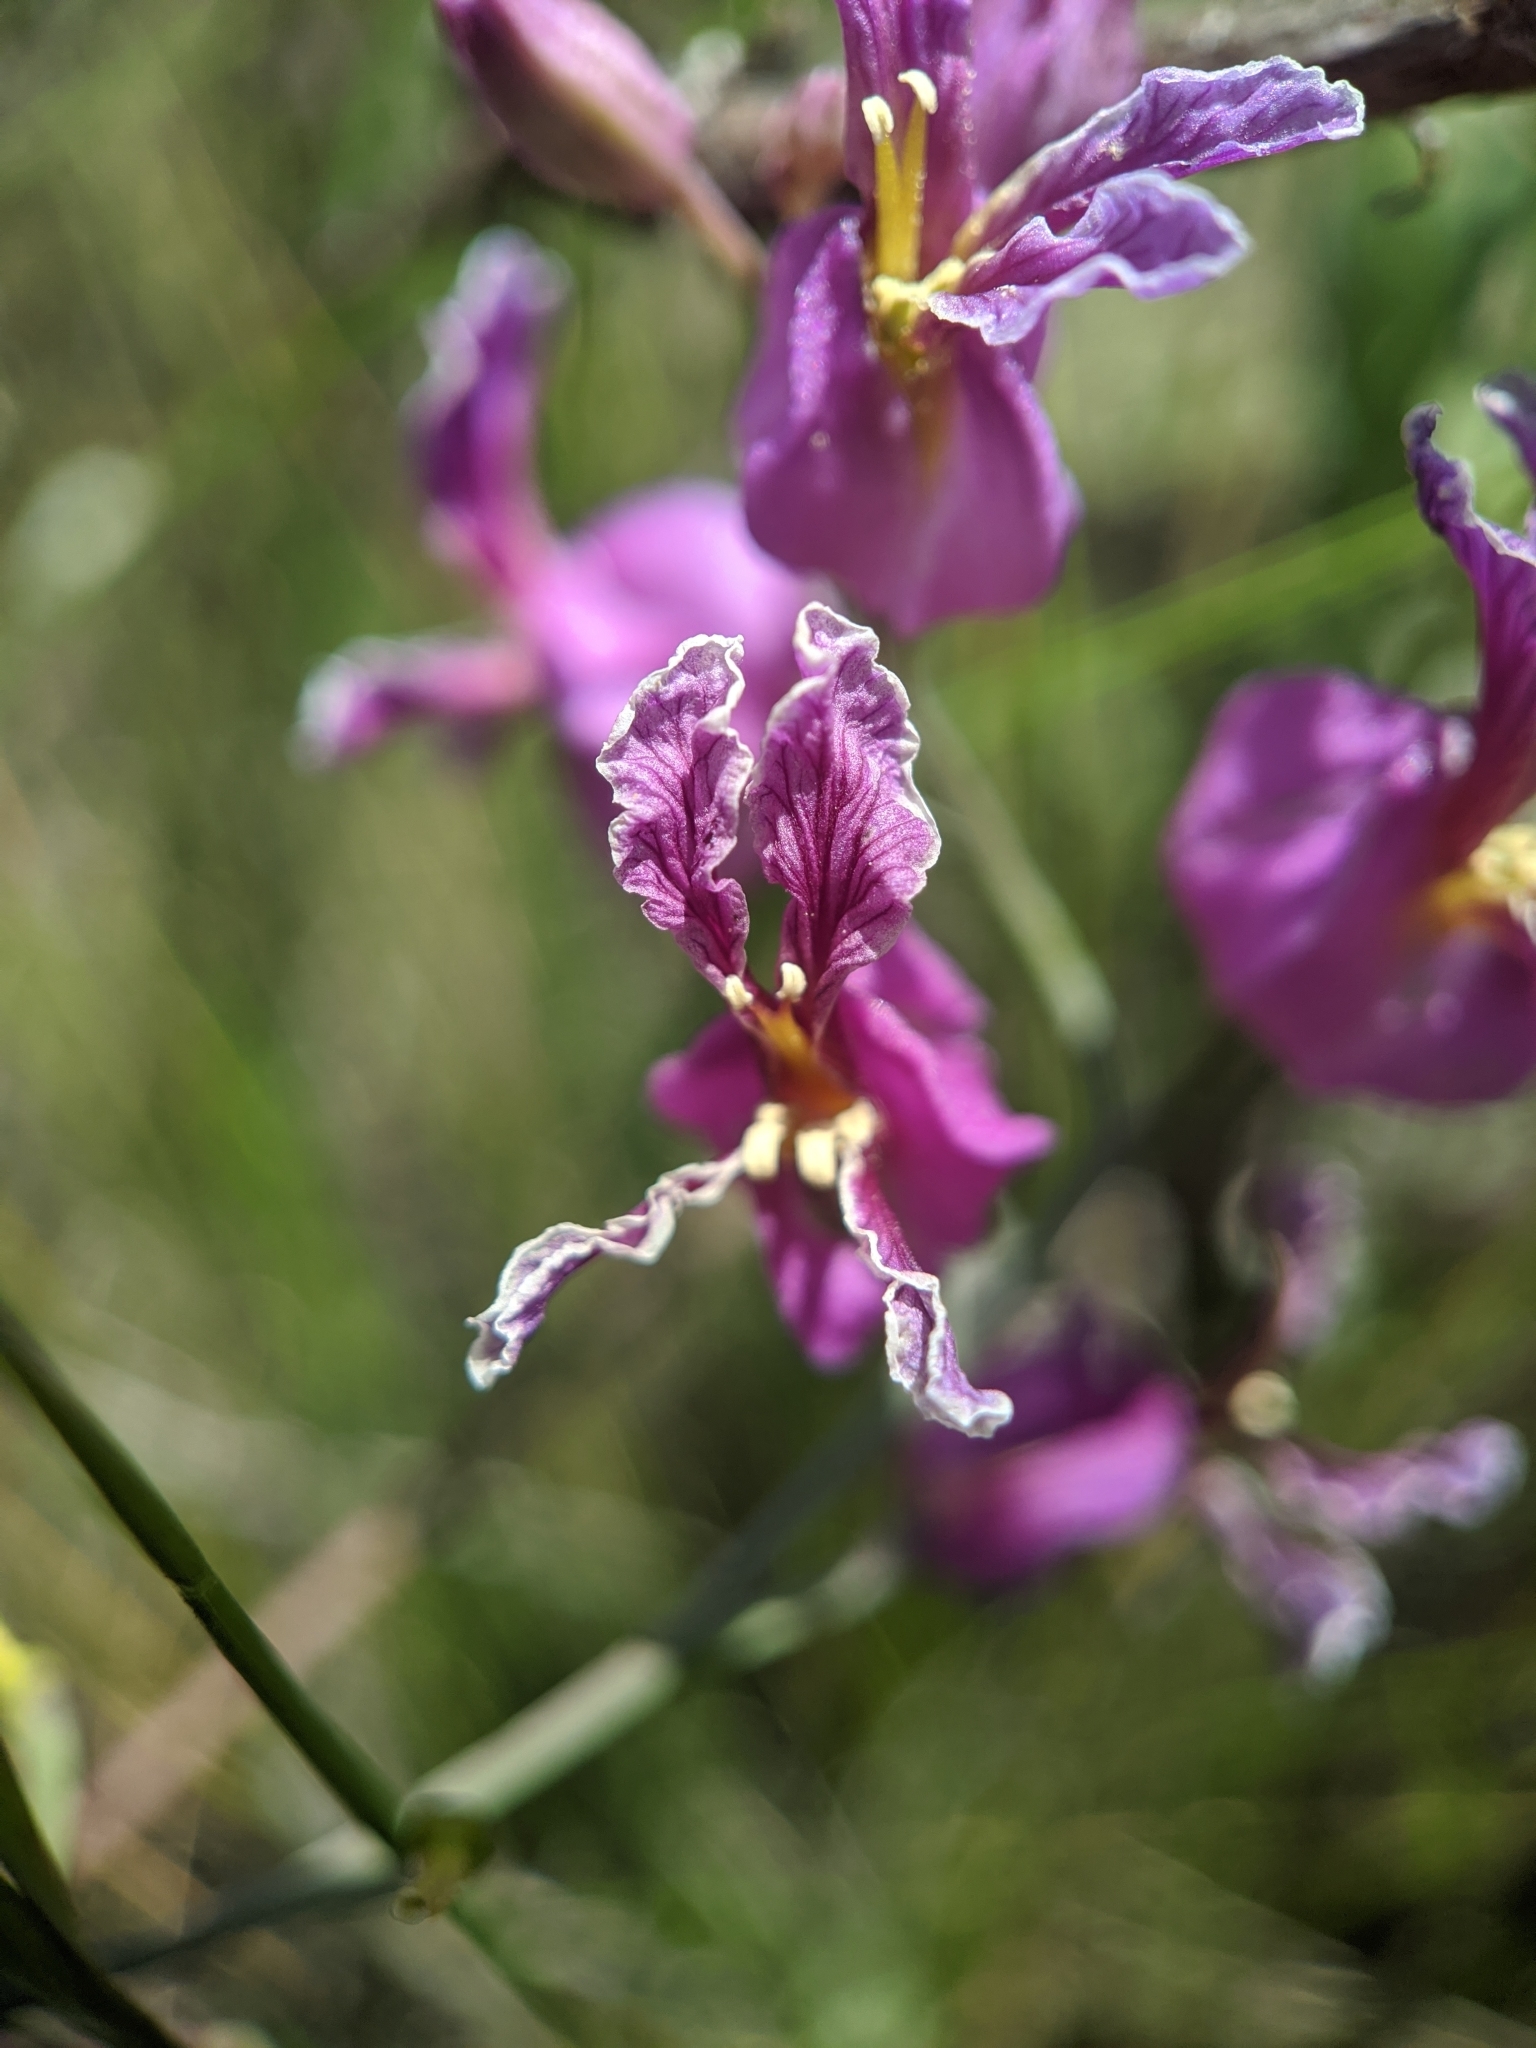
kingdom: Plantae
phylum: Tracheophyta
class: Magnoliopsida
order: Brassicales
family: Brassicaceae
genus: Streptanthus
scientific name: Streptanthus glandulosus
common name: Jewel-flower
